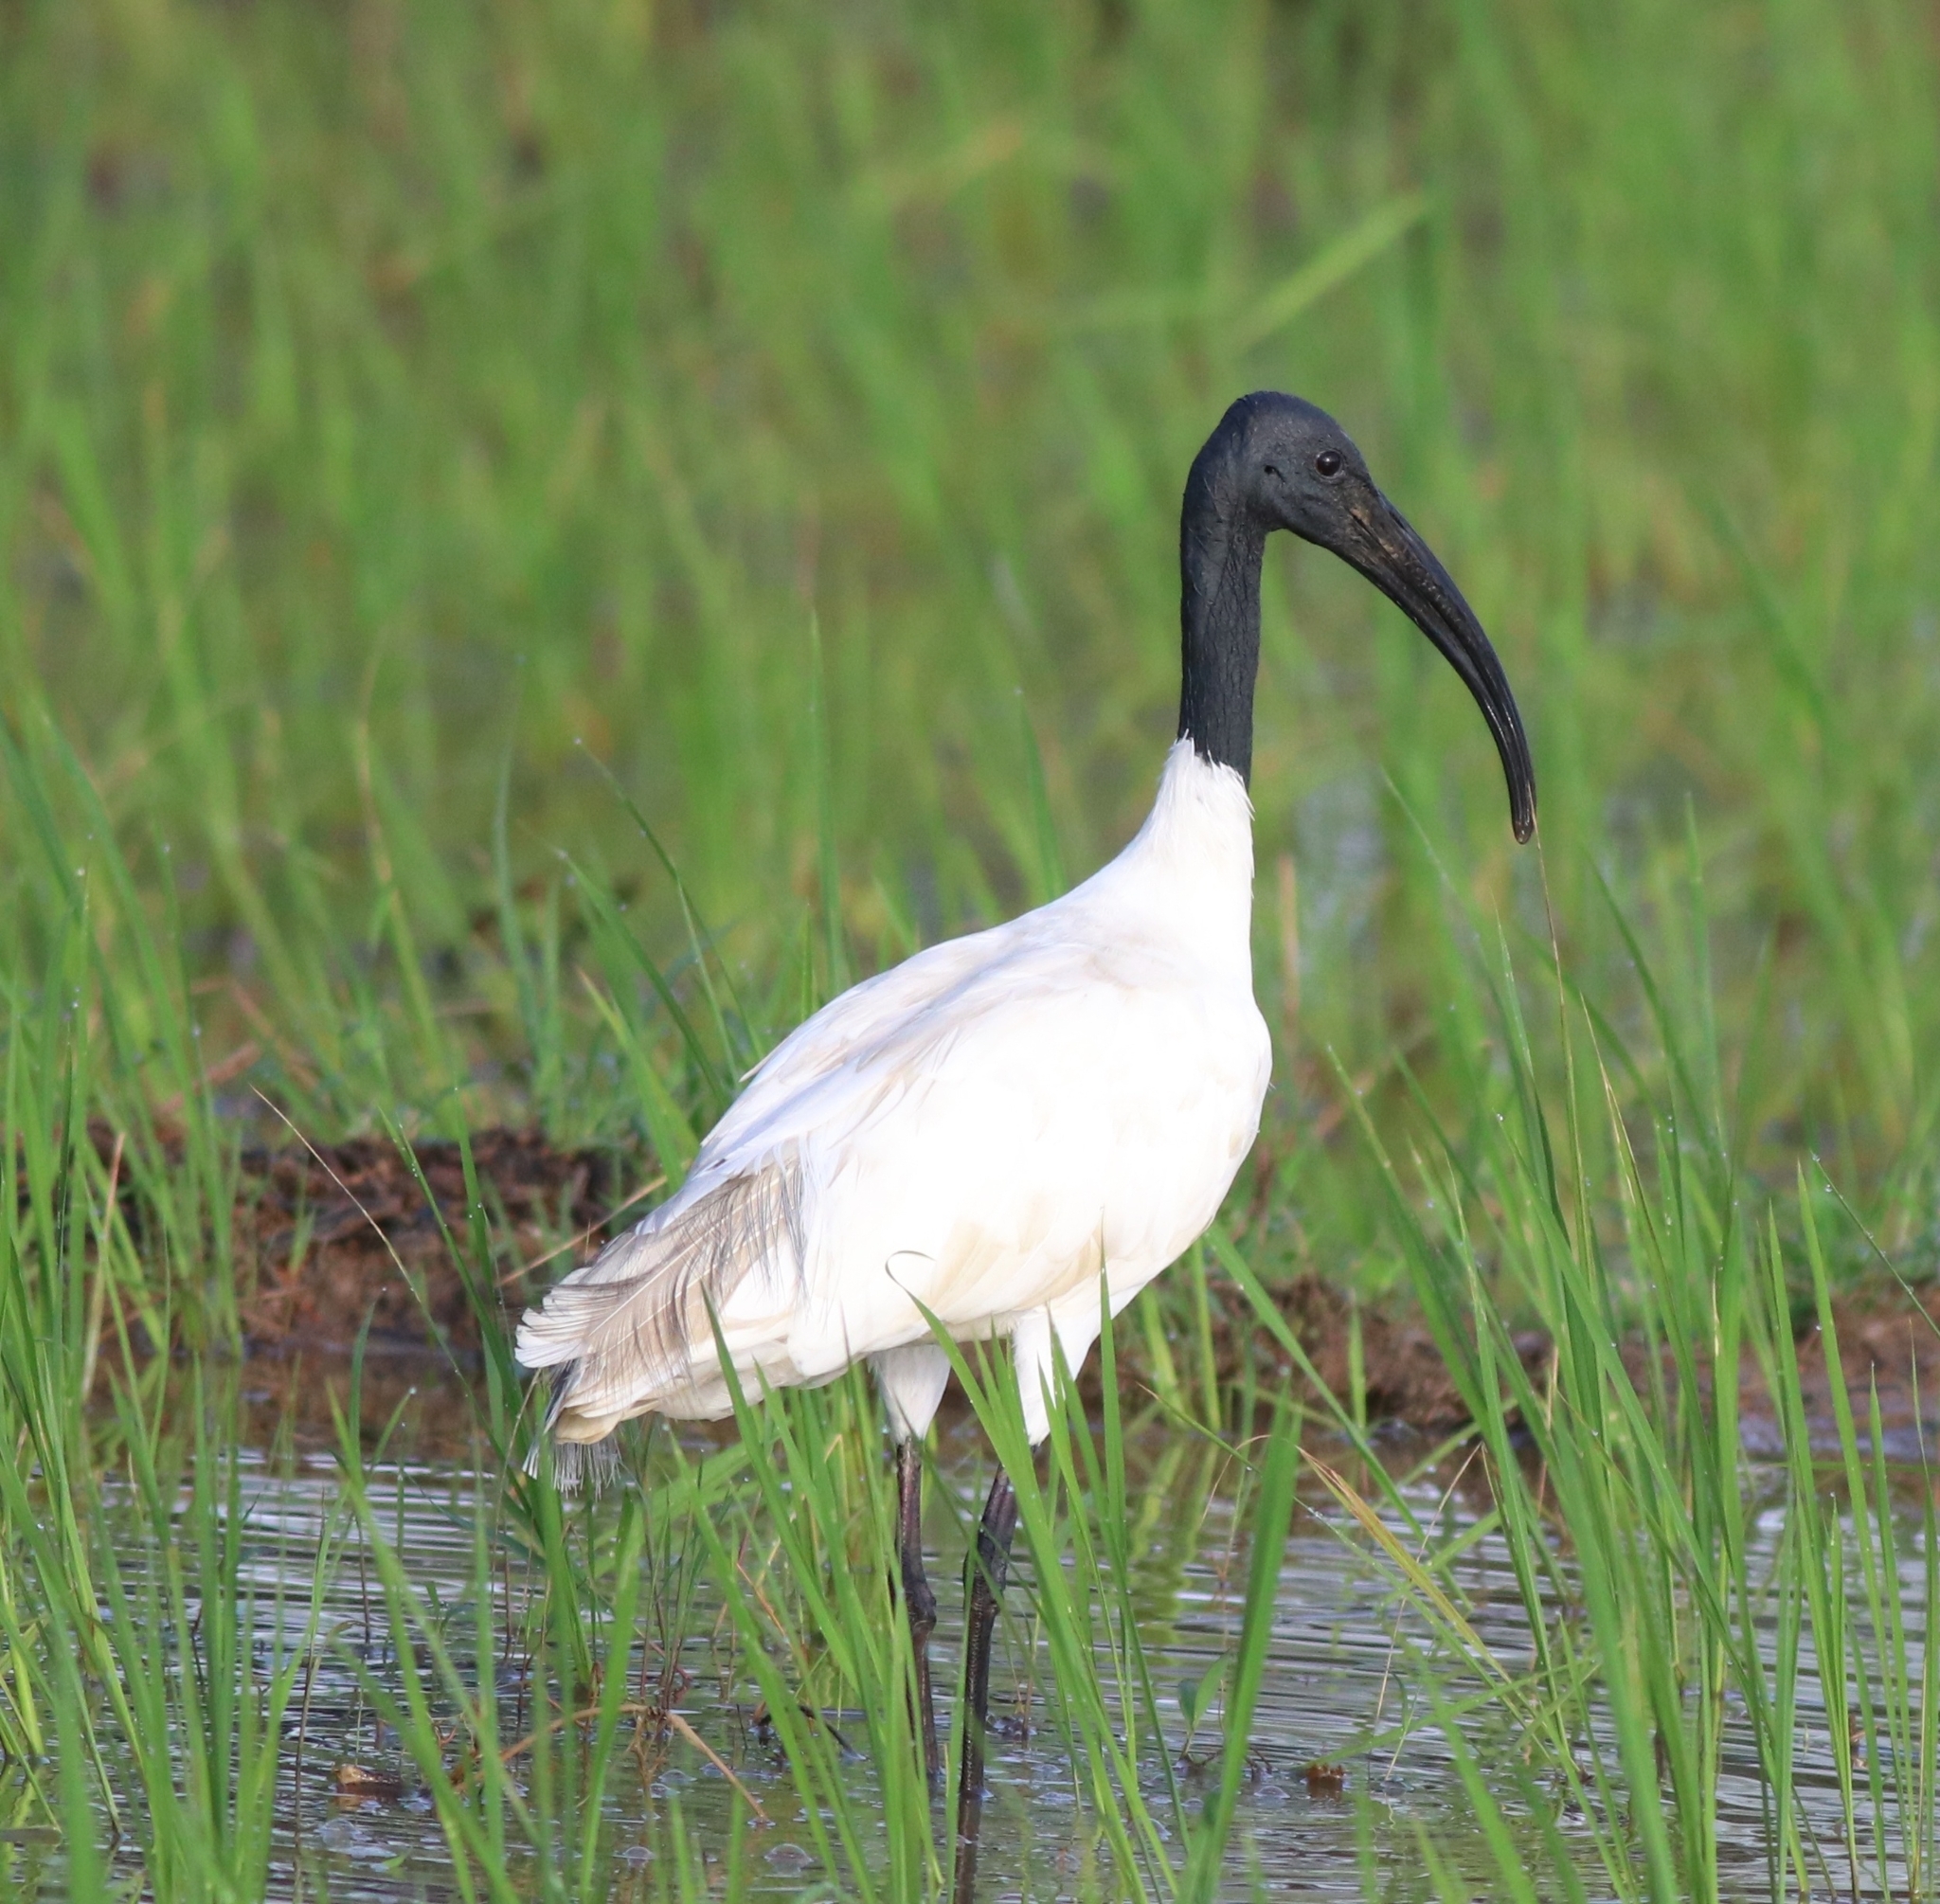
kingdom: Animalia
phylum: Chordata
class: Aves
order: Pelecaniformes
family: Threskiornithidae
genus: Threskiornis
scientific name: Threskiornis melanocephalus
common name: Black-headed ibis
